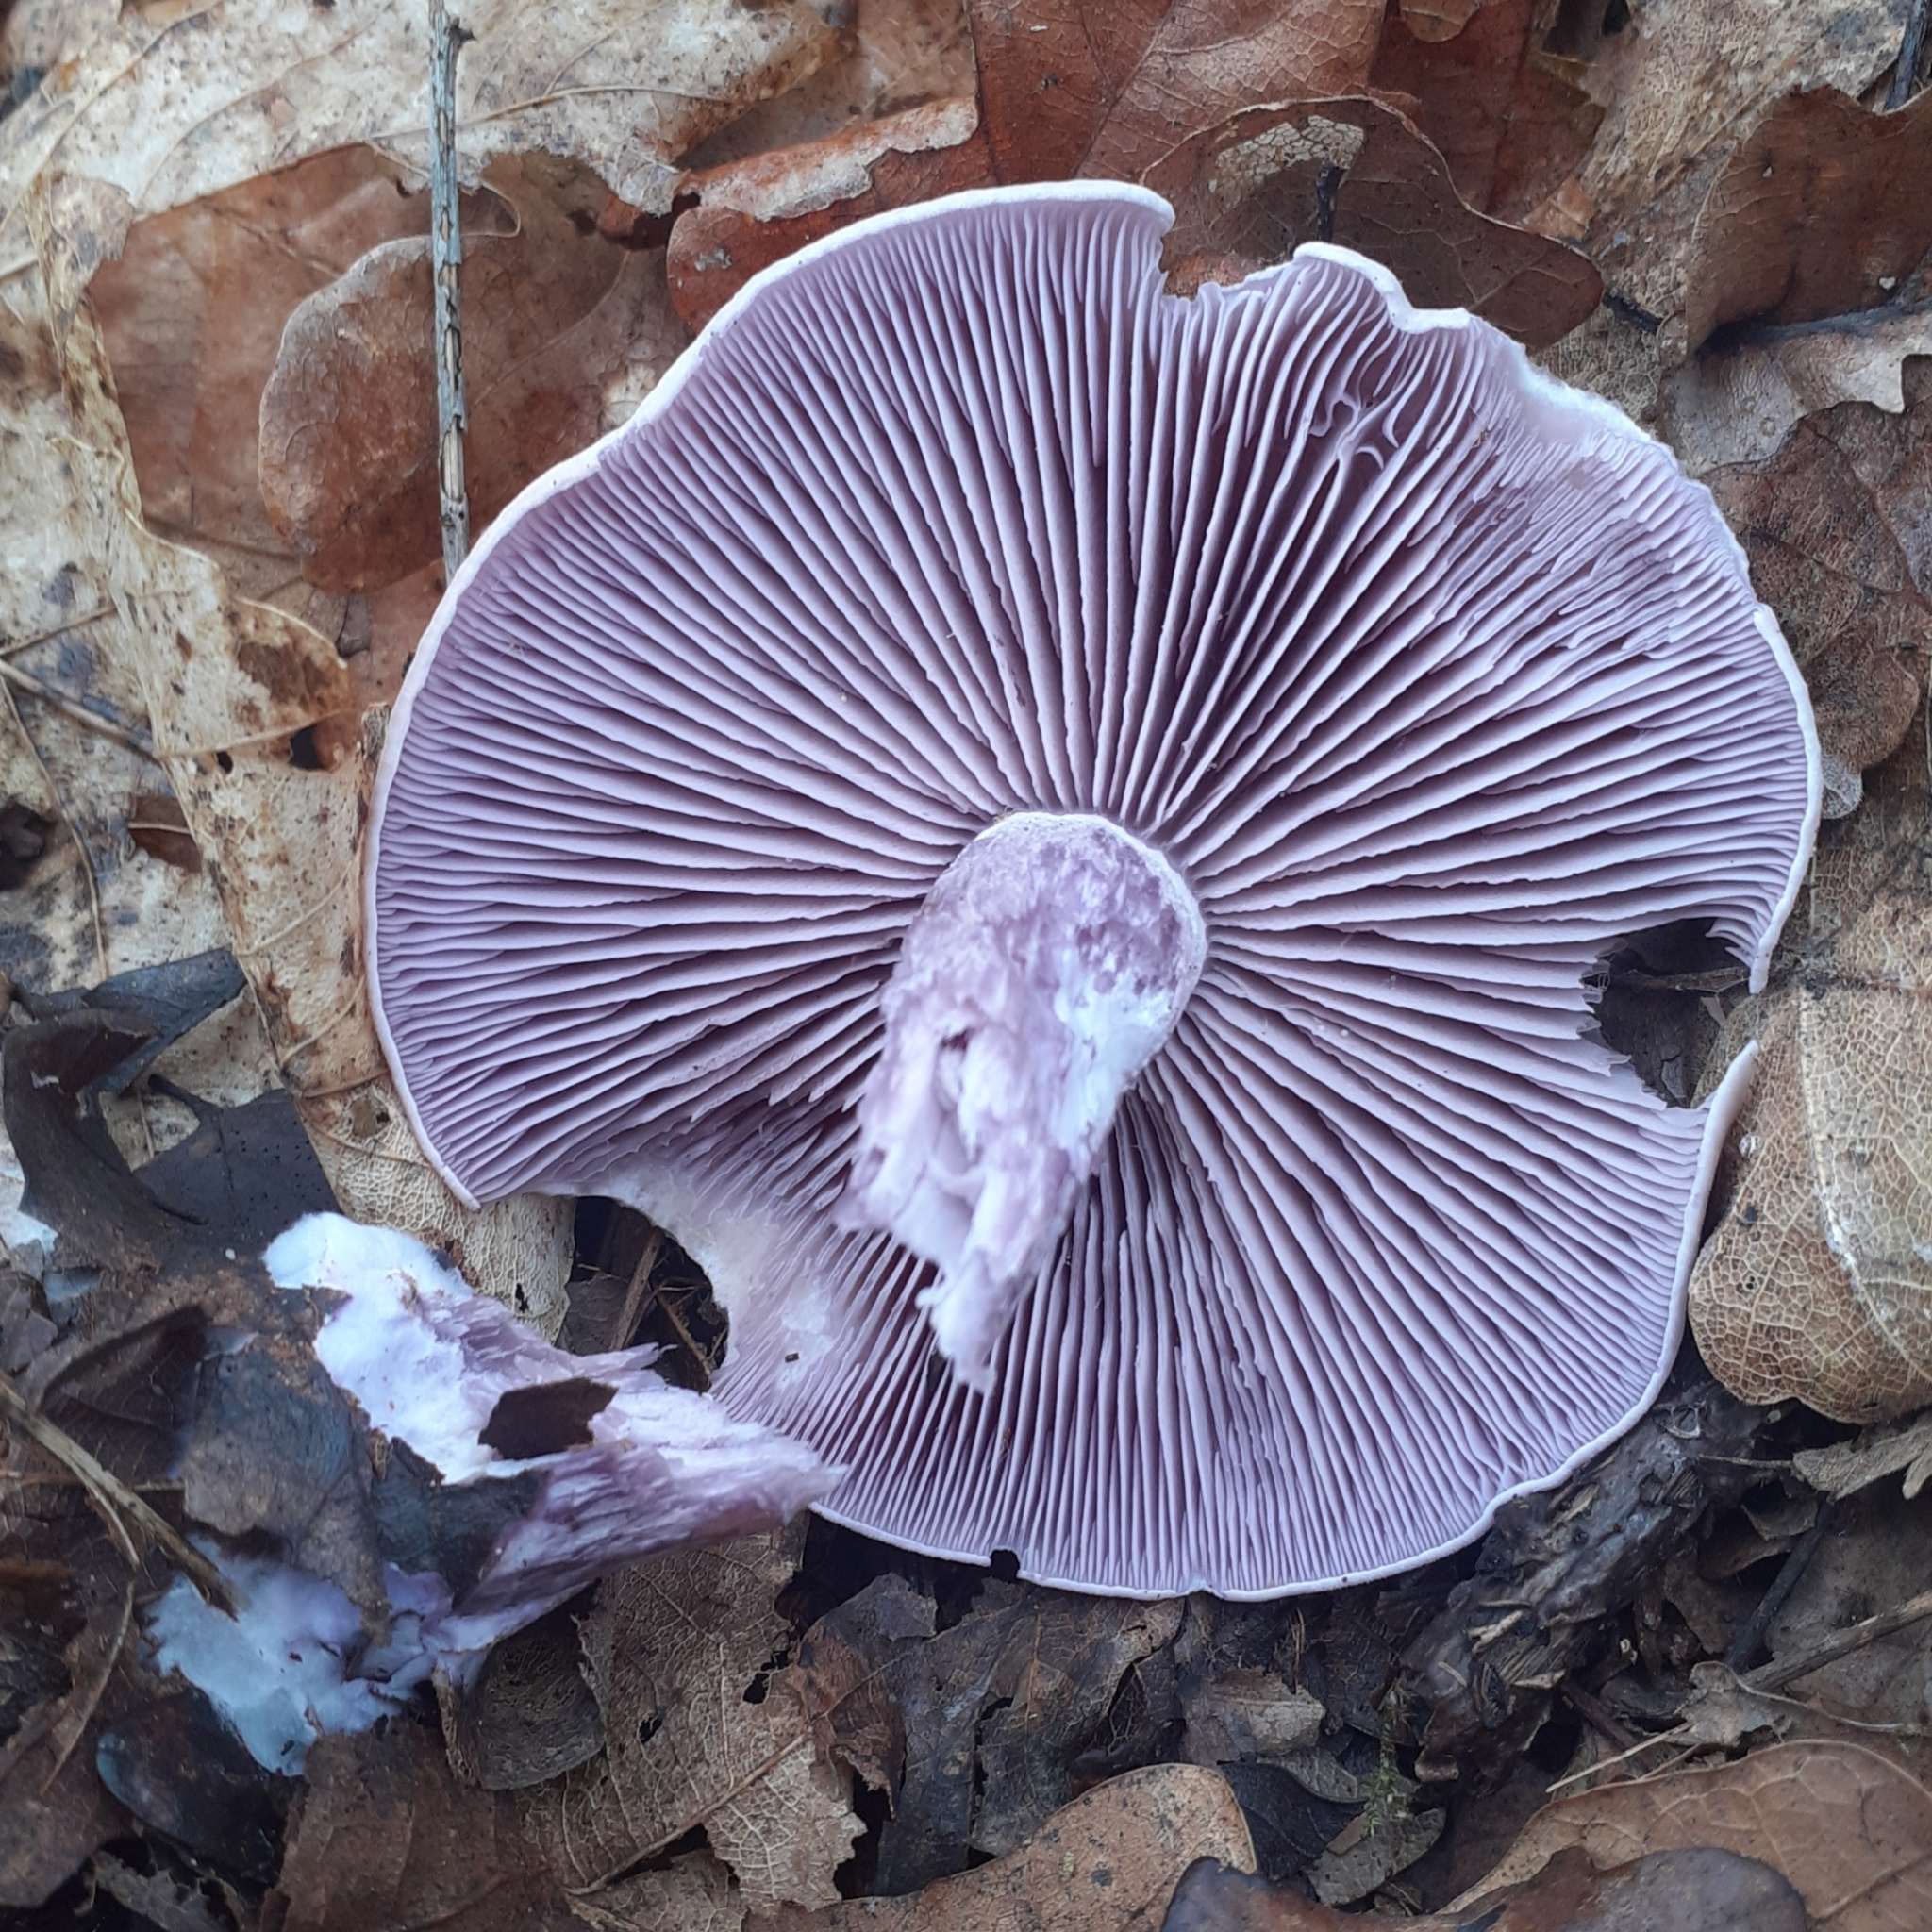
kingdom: Fungi
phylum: Basidiomycota
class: Agaricomycetes
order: Agaricales
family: Tricholomataceae
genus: Collybia
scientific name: Collybia
